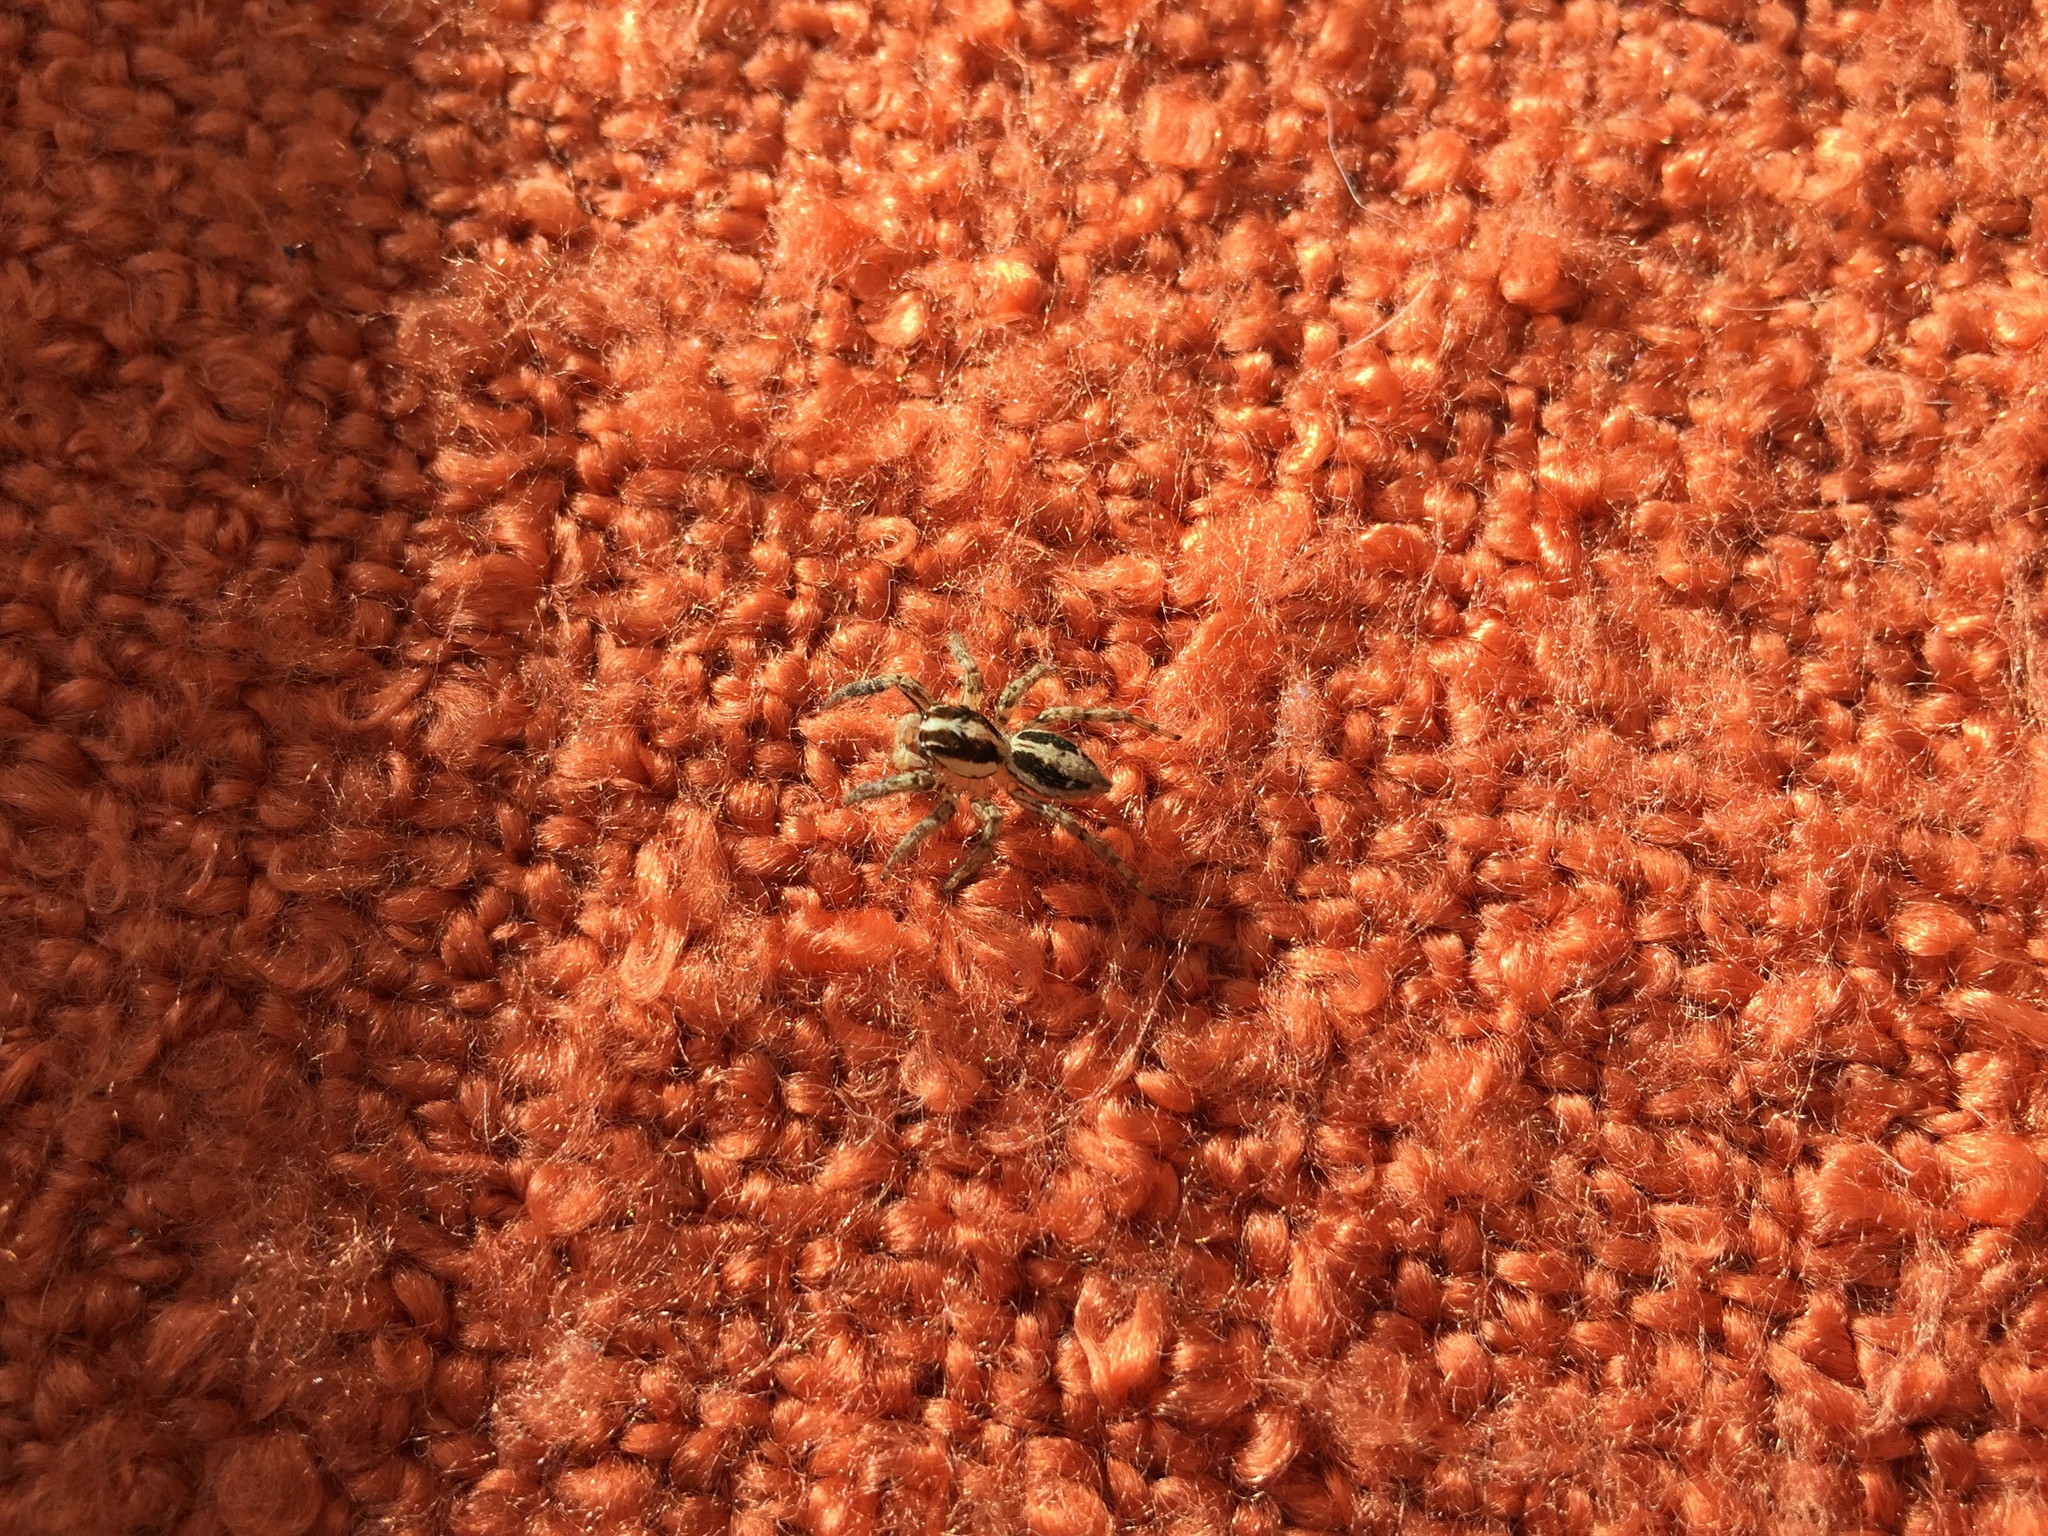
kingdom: Animalia
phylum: Arthropoda
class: Arachnida
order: Araneae
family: Salticidae
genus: Plexippus
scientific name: Plexippus paykulli
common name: Pantropical jumper
